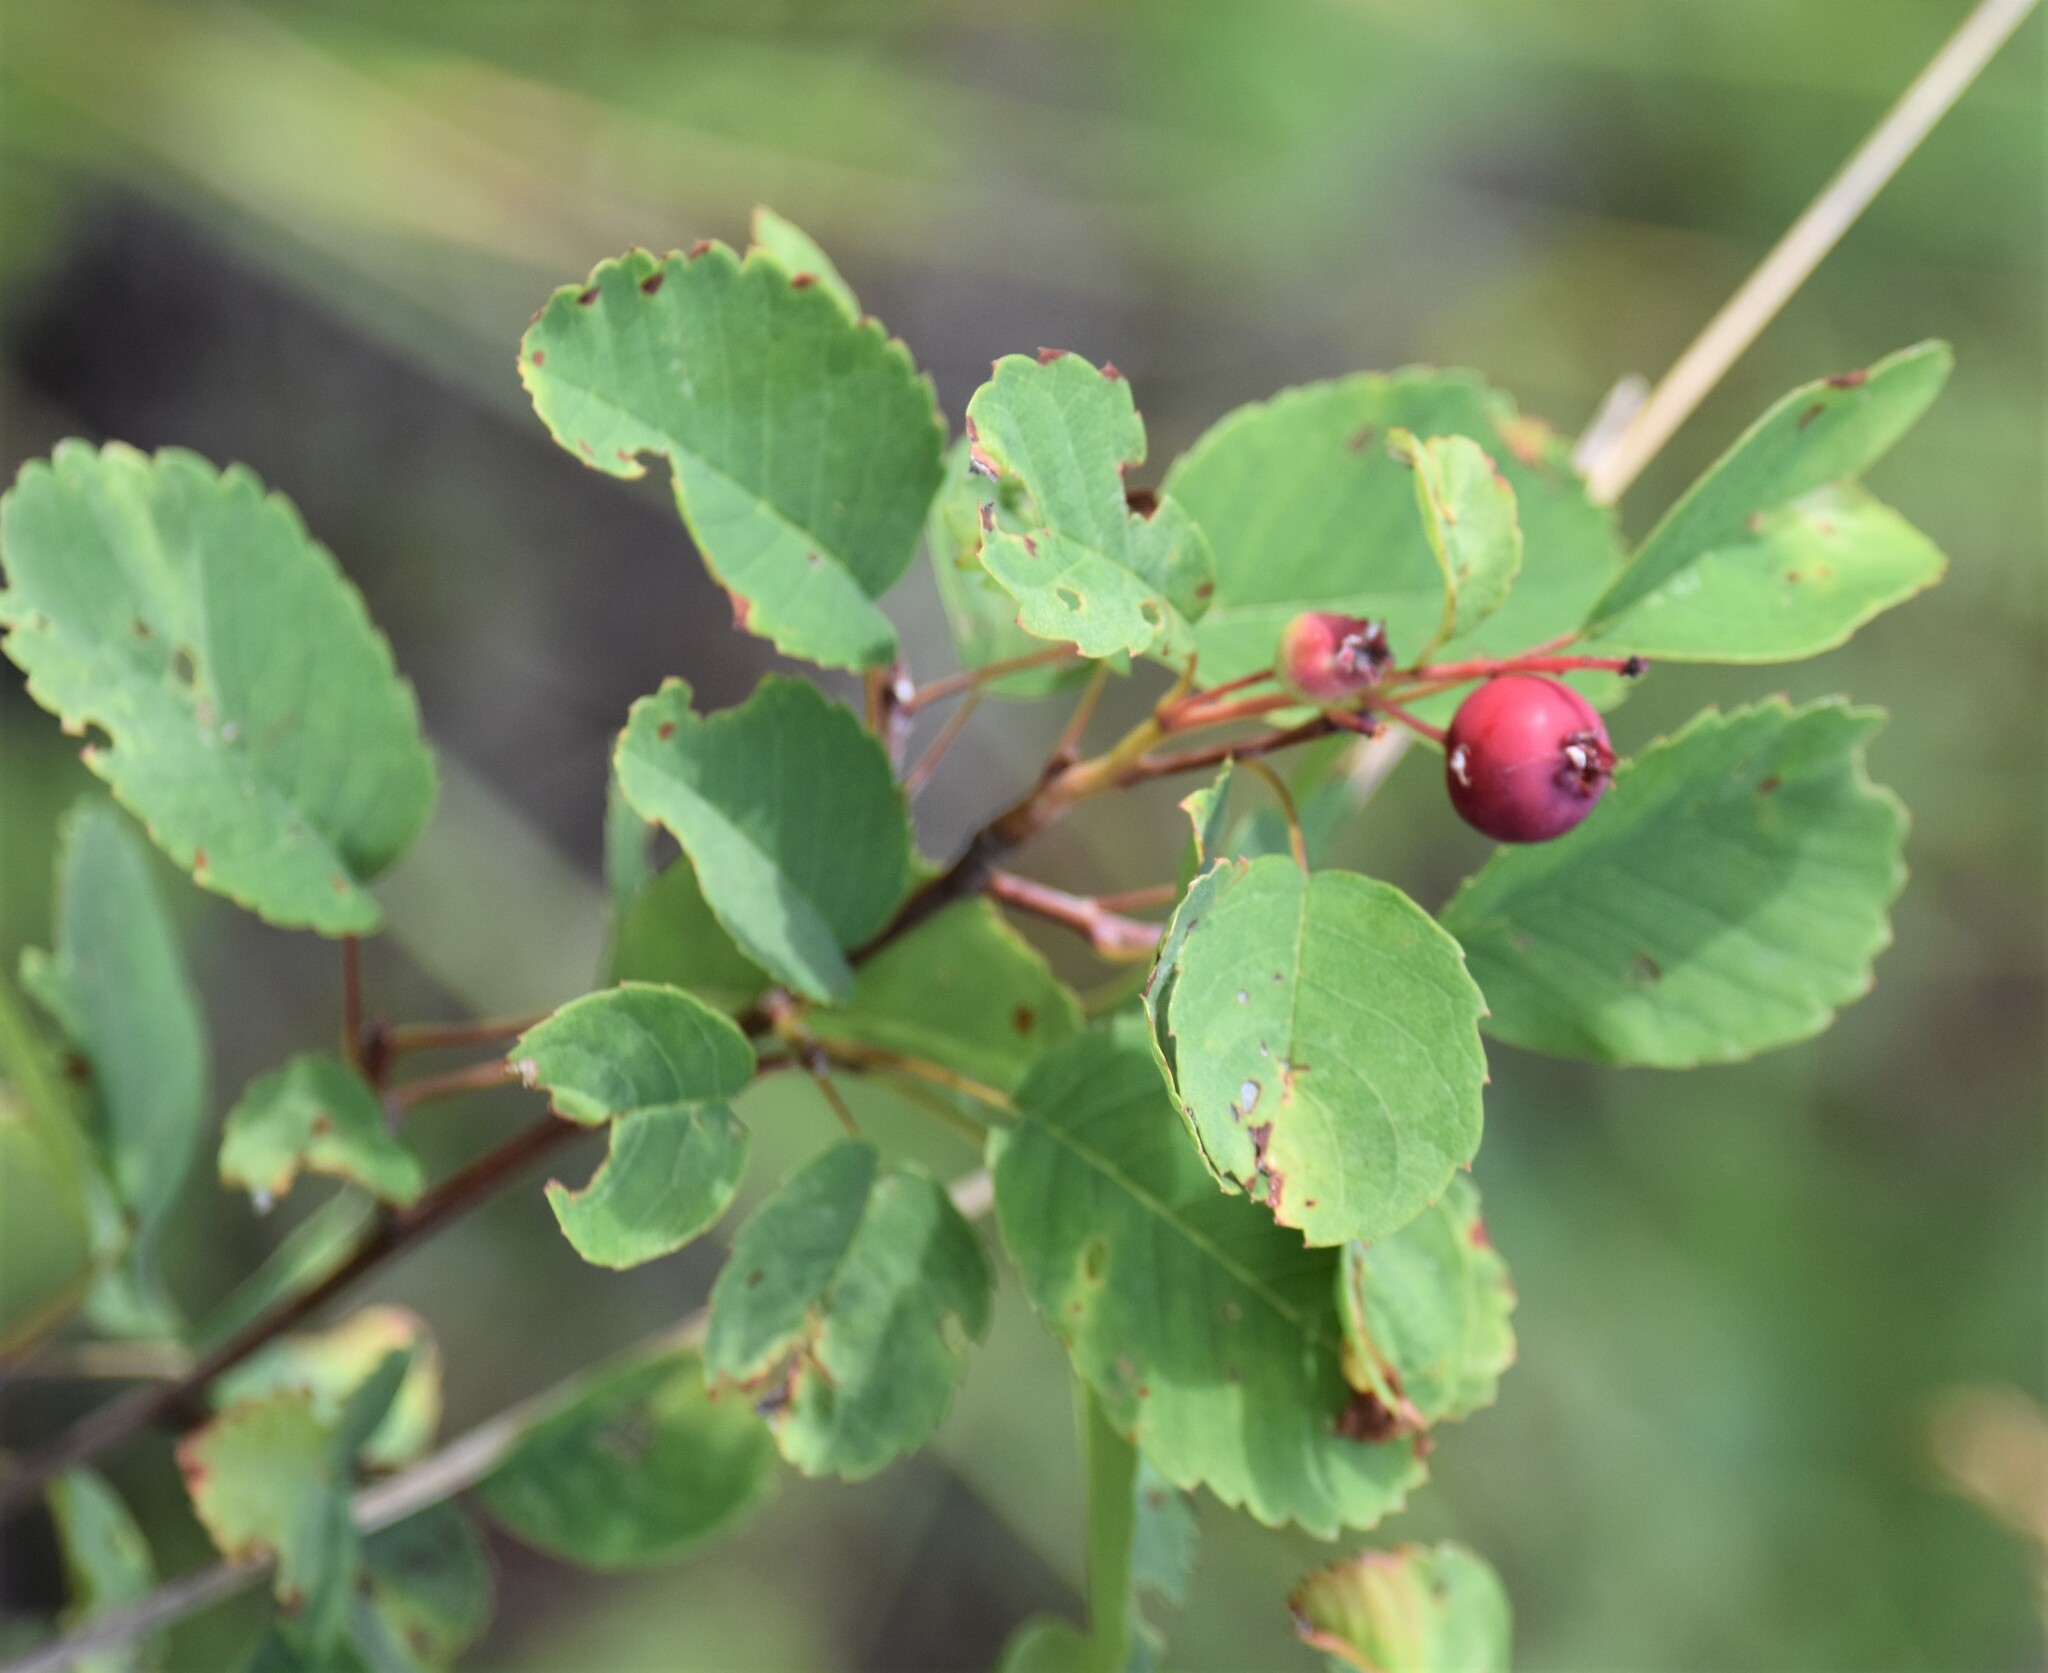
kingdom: Plantae
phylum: Tracheophyta
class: Magnoliopsida
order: Rosales
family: Rosaceae
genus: Amelanchier
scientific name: Amelanchier alnifolia
